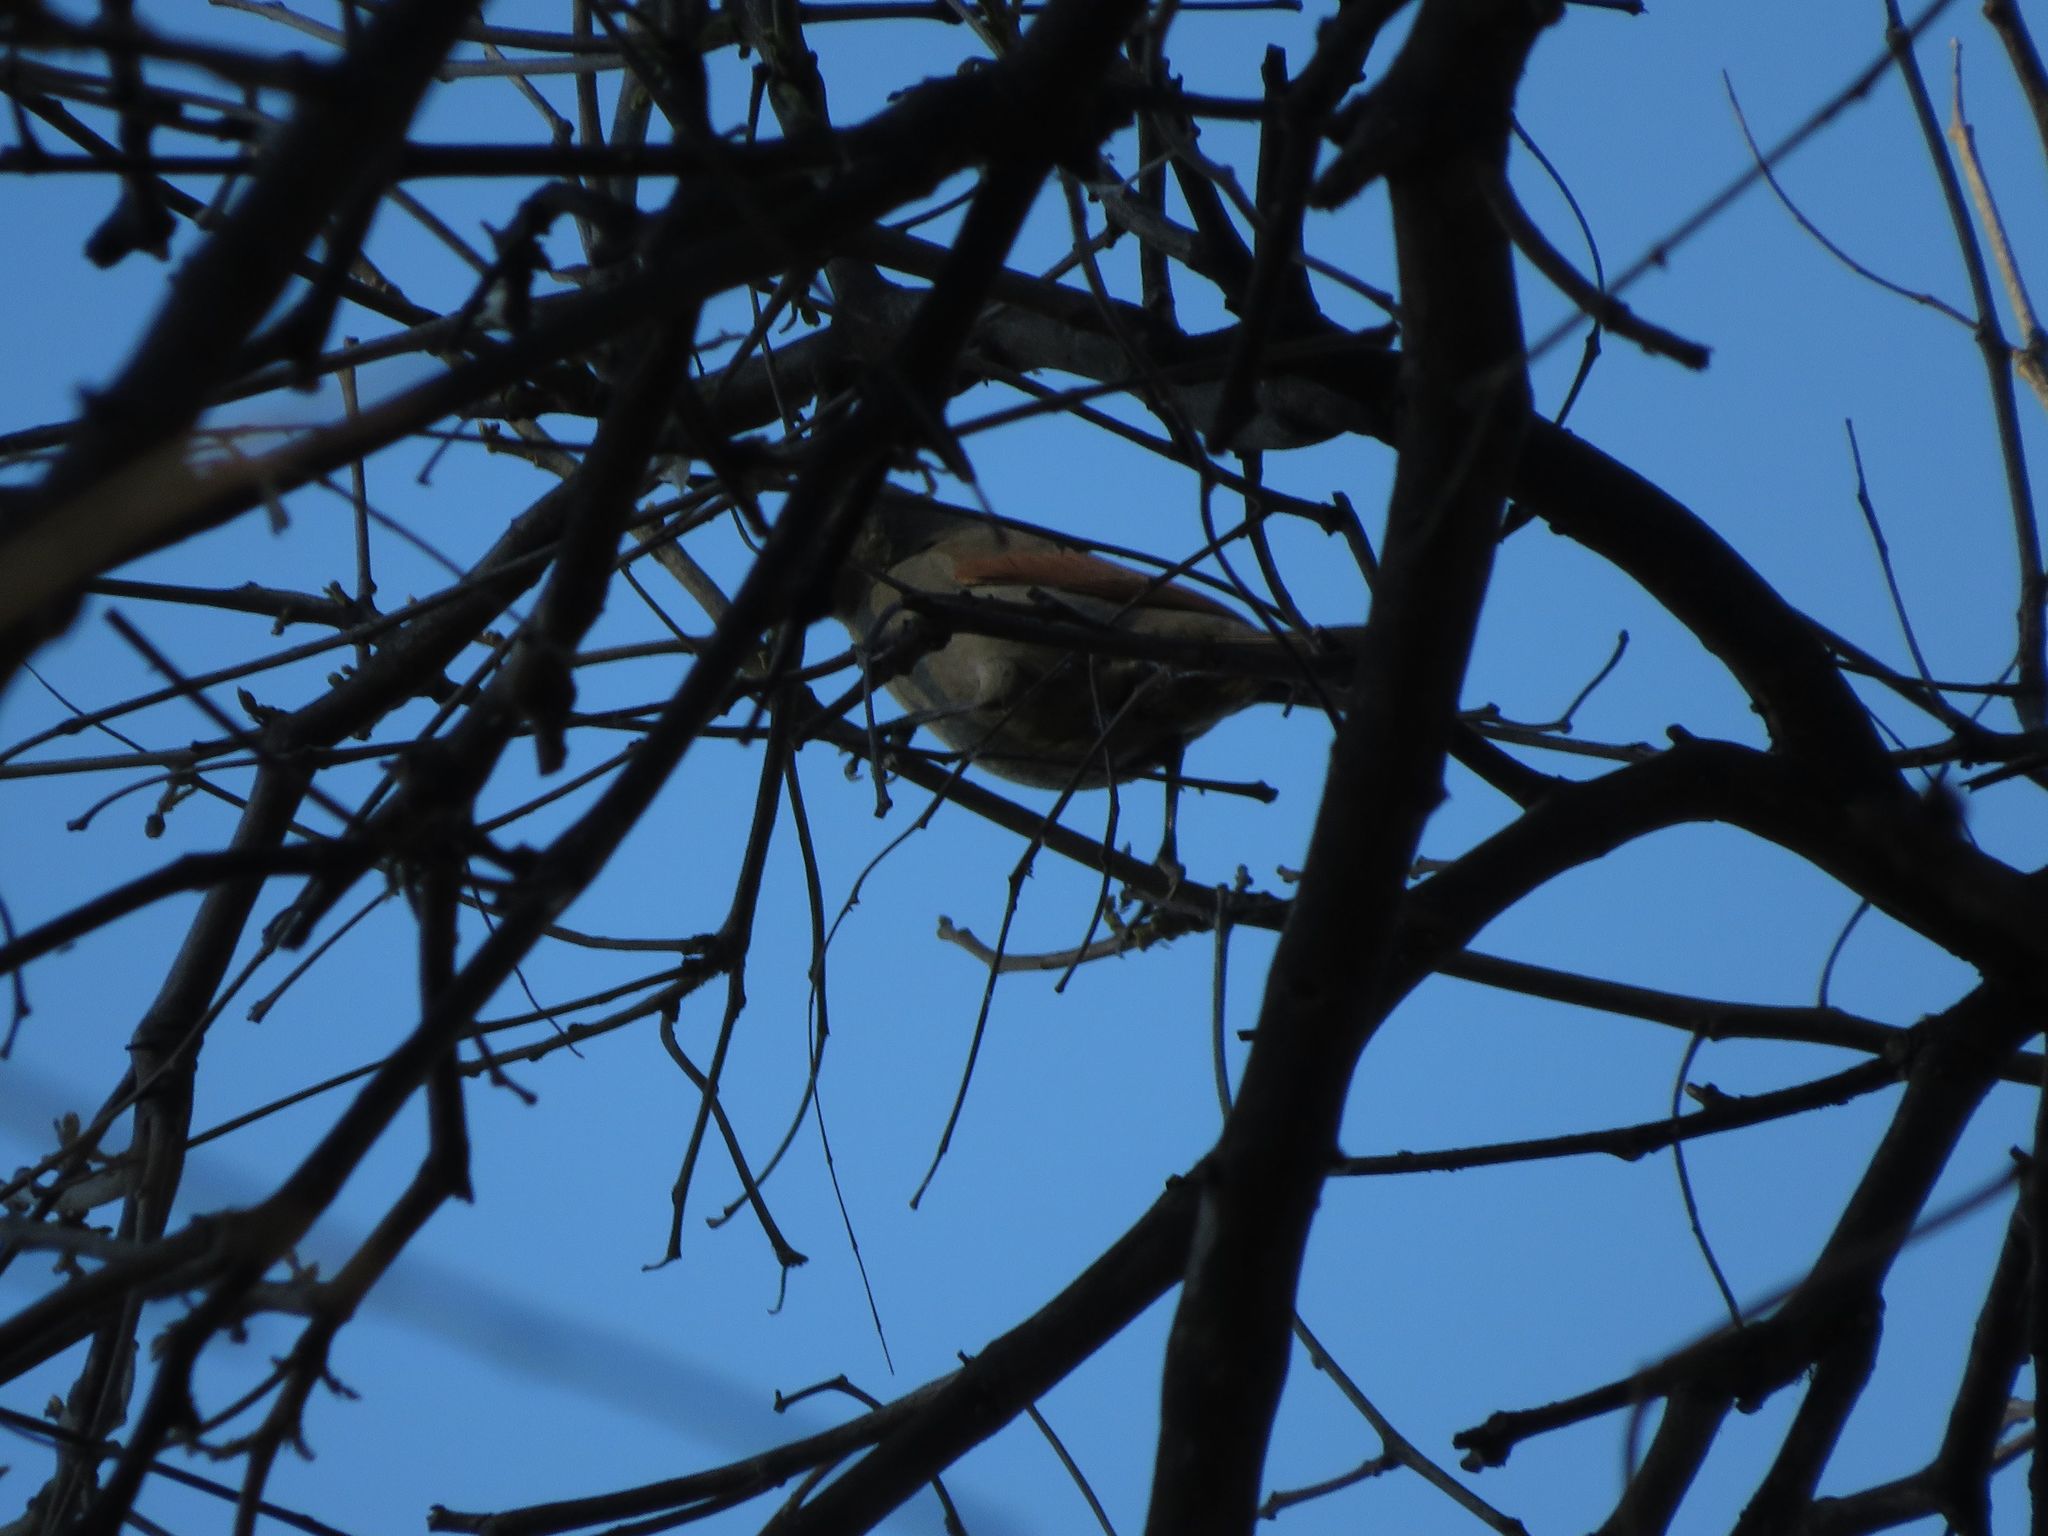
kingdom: Animalia
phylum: Chordata
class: Aves
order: Passeriformes
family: Icteridae
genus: Agelaioides
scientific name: Agelaioides badius
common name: Baywing
